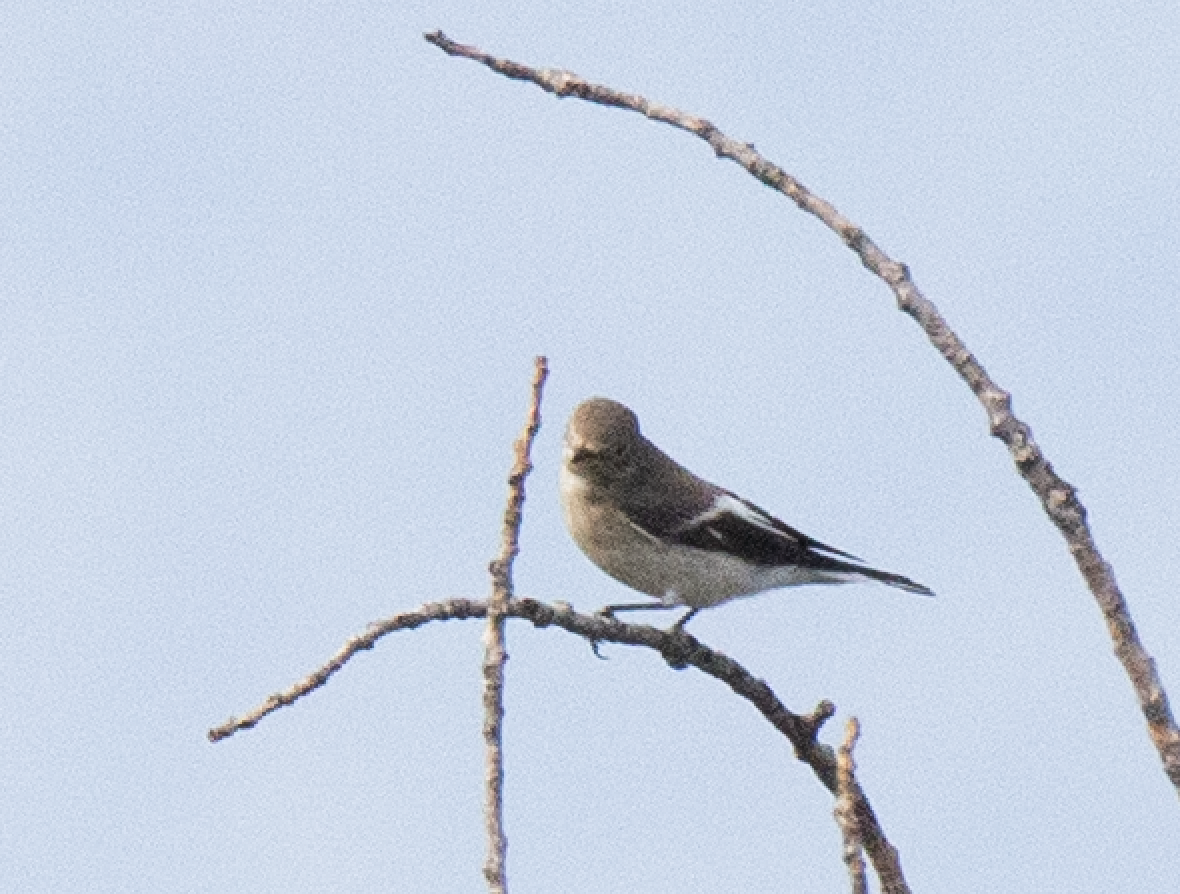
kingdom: Animalia
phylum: Chordata
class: Aves
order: Passeriformes
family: Muscicapidae
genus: Ficedula
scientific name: Ficedula hypoleuca
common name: European pied flycatcher
